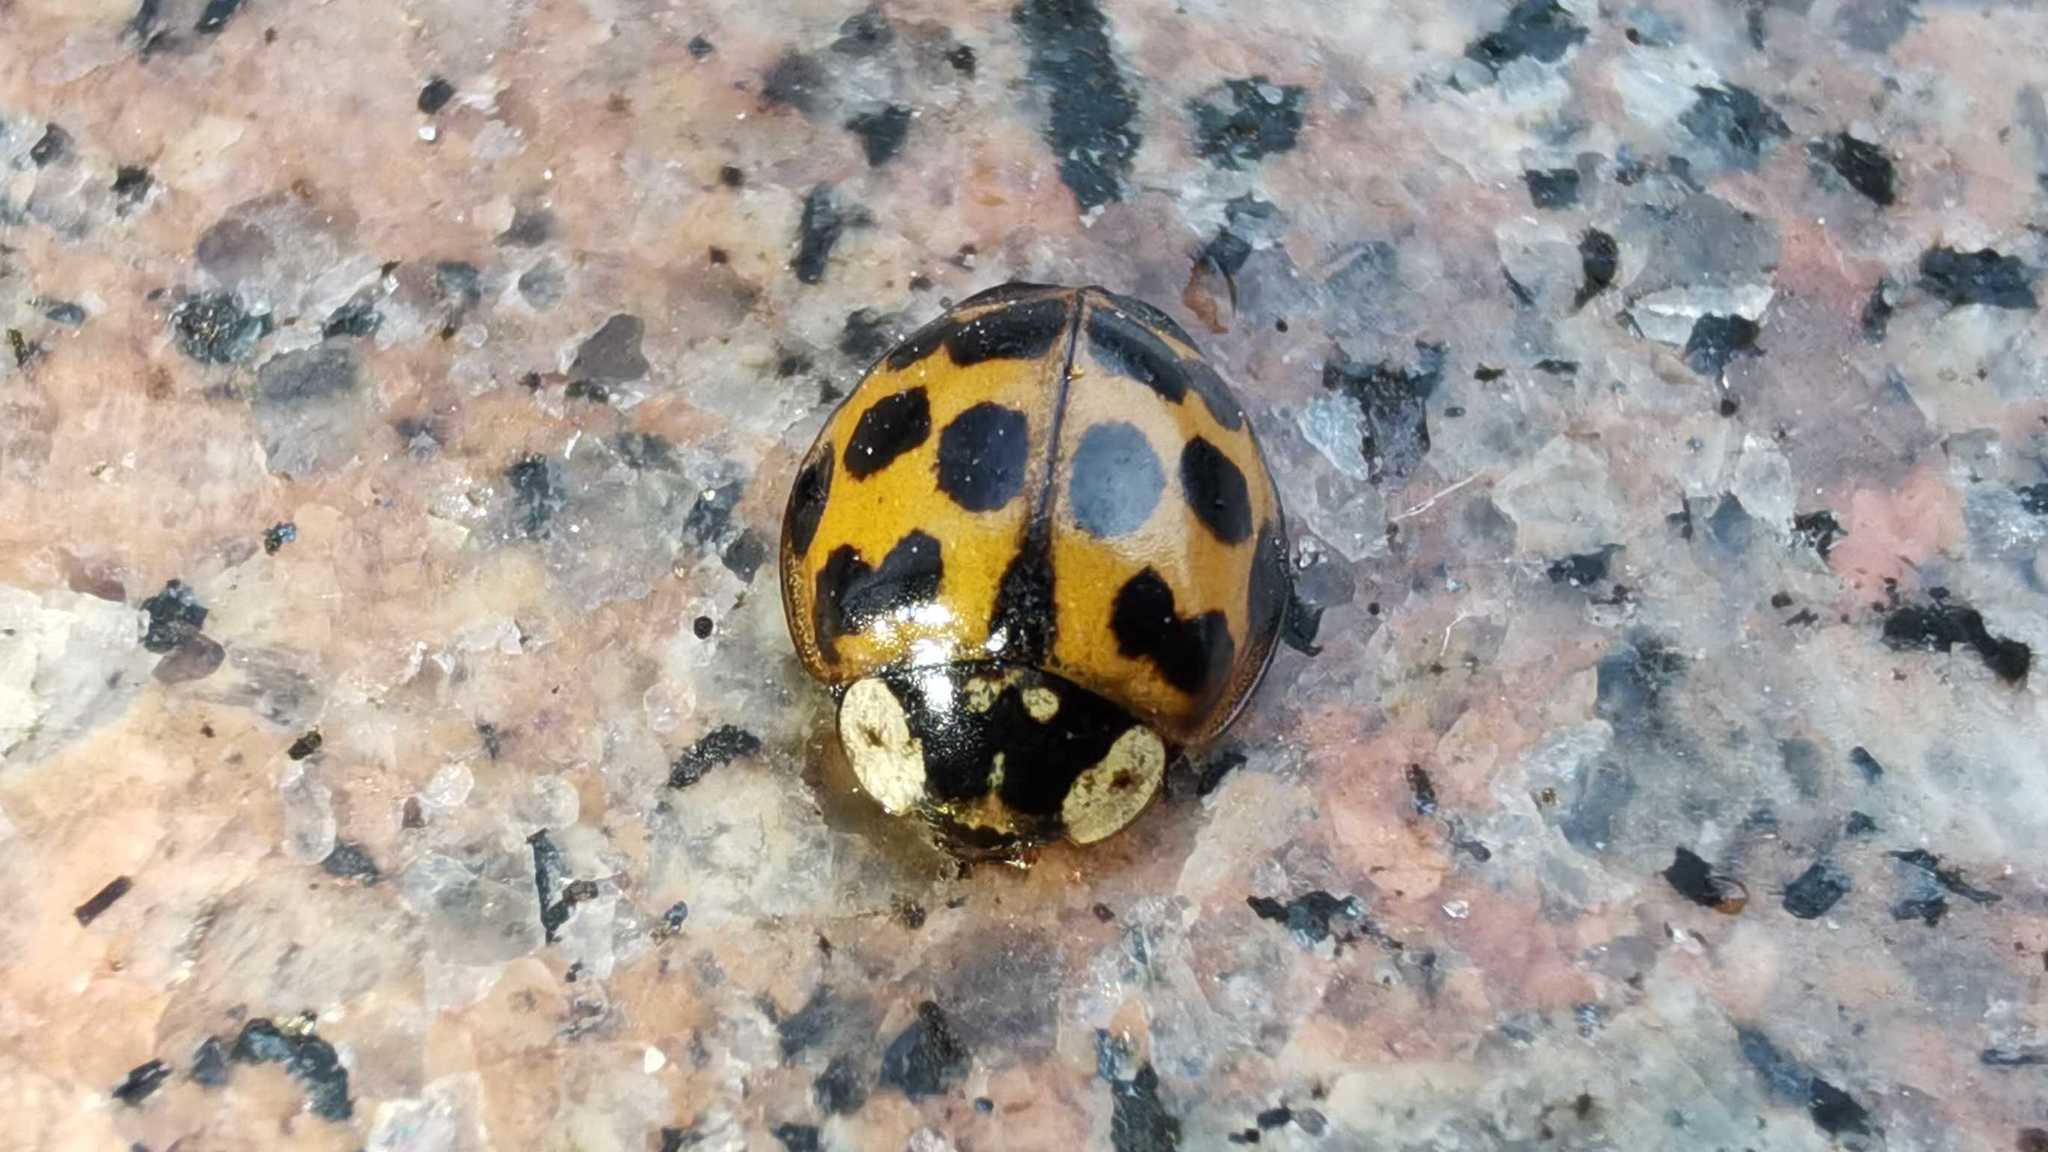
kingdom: Animalia
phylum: Arthropoda
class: Insecta
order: Coleoptera
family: Coccinellidae
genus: Harmonia
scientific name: Harmonia axyridis
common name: Harlequin ladybird
